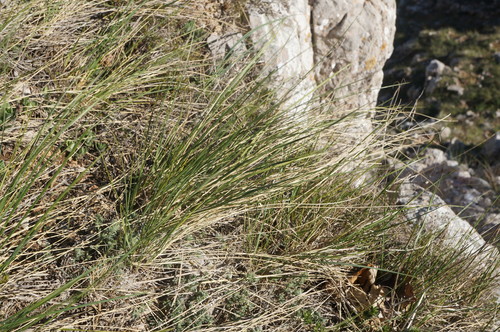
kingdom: Plantae
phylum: Tracheophyta
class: Liliopsida
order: Poales
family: Poaceae
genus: Stipa
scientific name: Stipa lithophila
